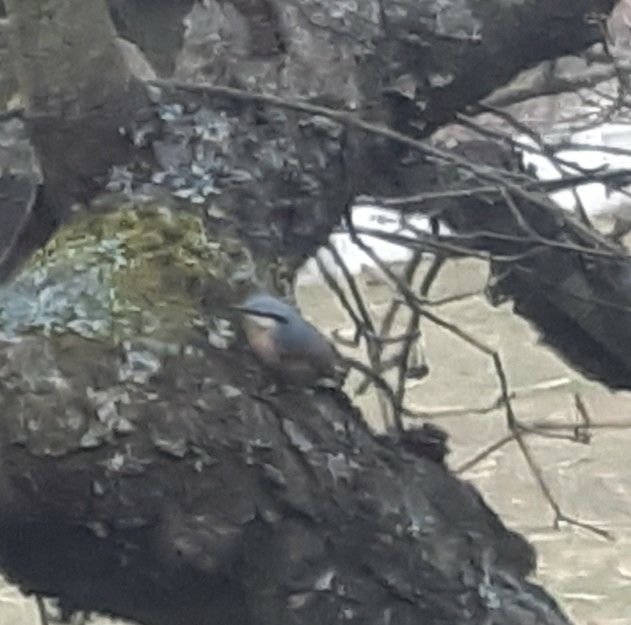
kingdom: Animalia
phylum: Chordata
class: Aves
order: Passeriformes
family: Sittidae
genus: Sitta
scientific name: Sitta europaea
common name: Eurasian nuthatch
